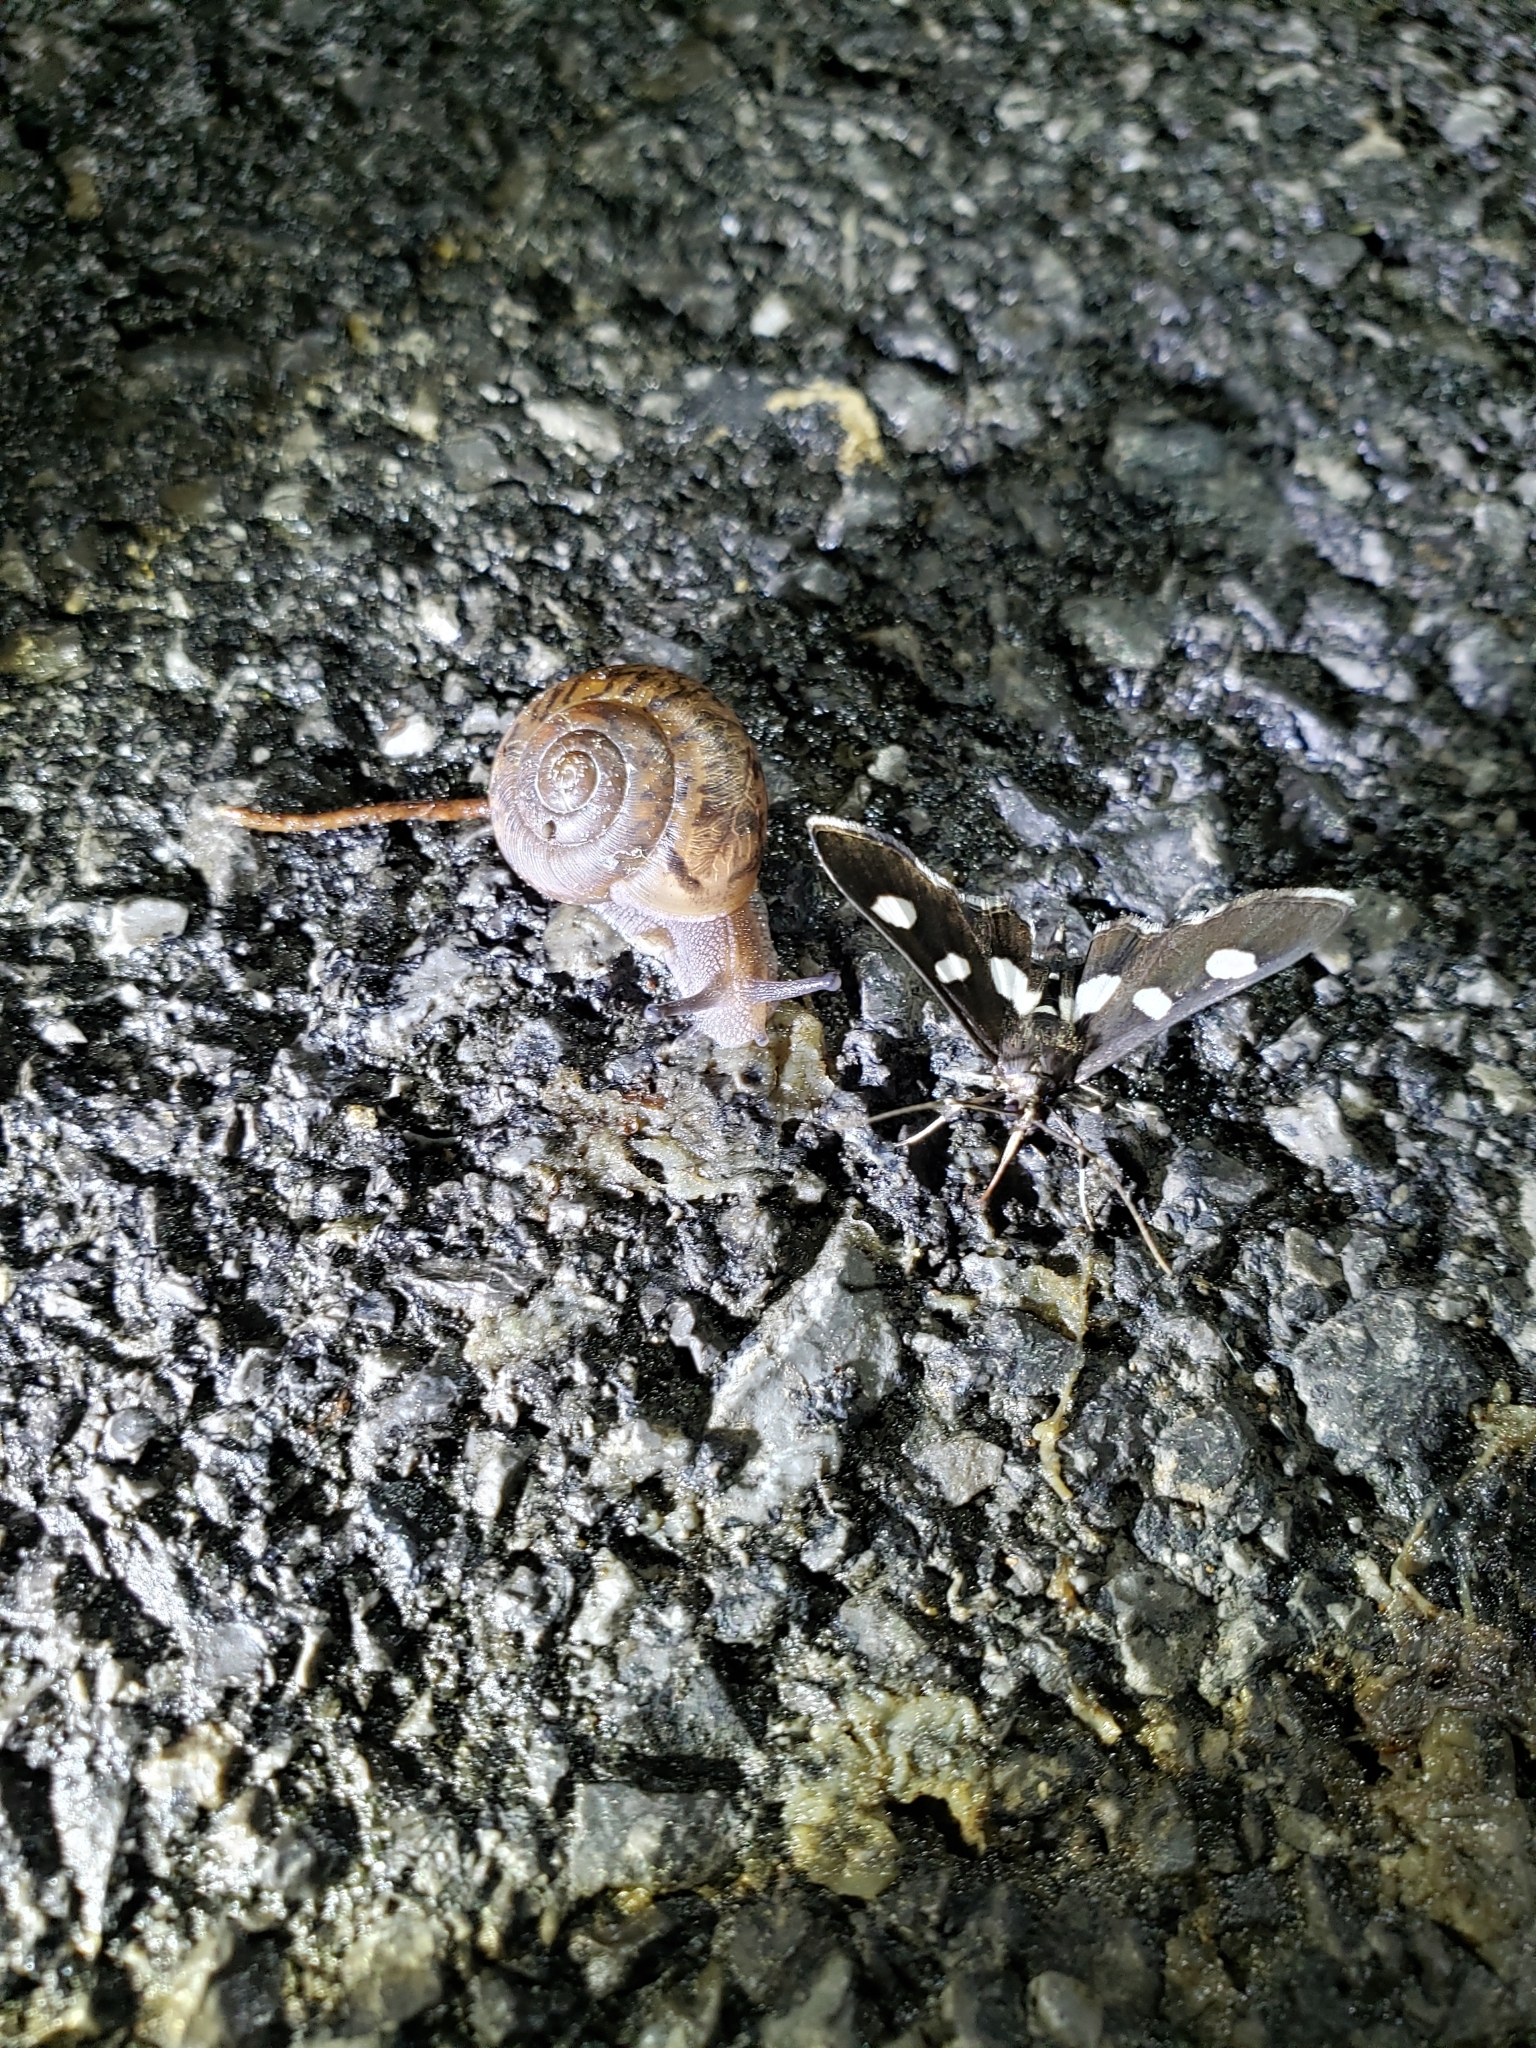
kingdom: Animalia
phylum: Arthropoda
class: Insecta
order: Lepidoptera
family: Crambidae
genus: Desmia
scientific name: Desmia
